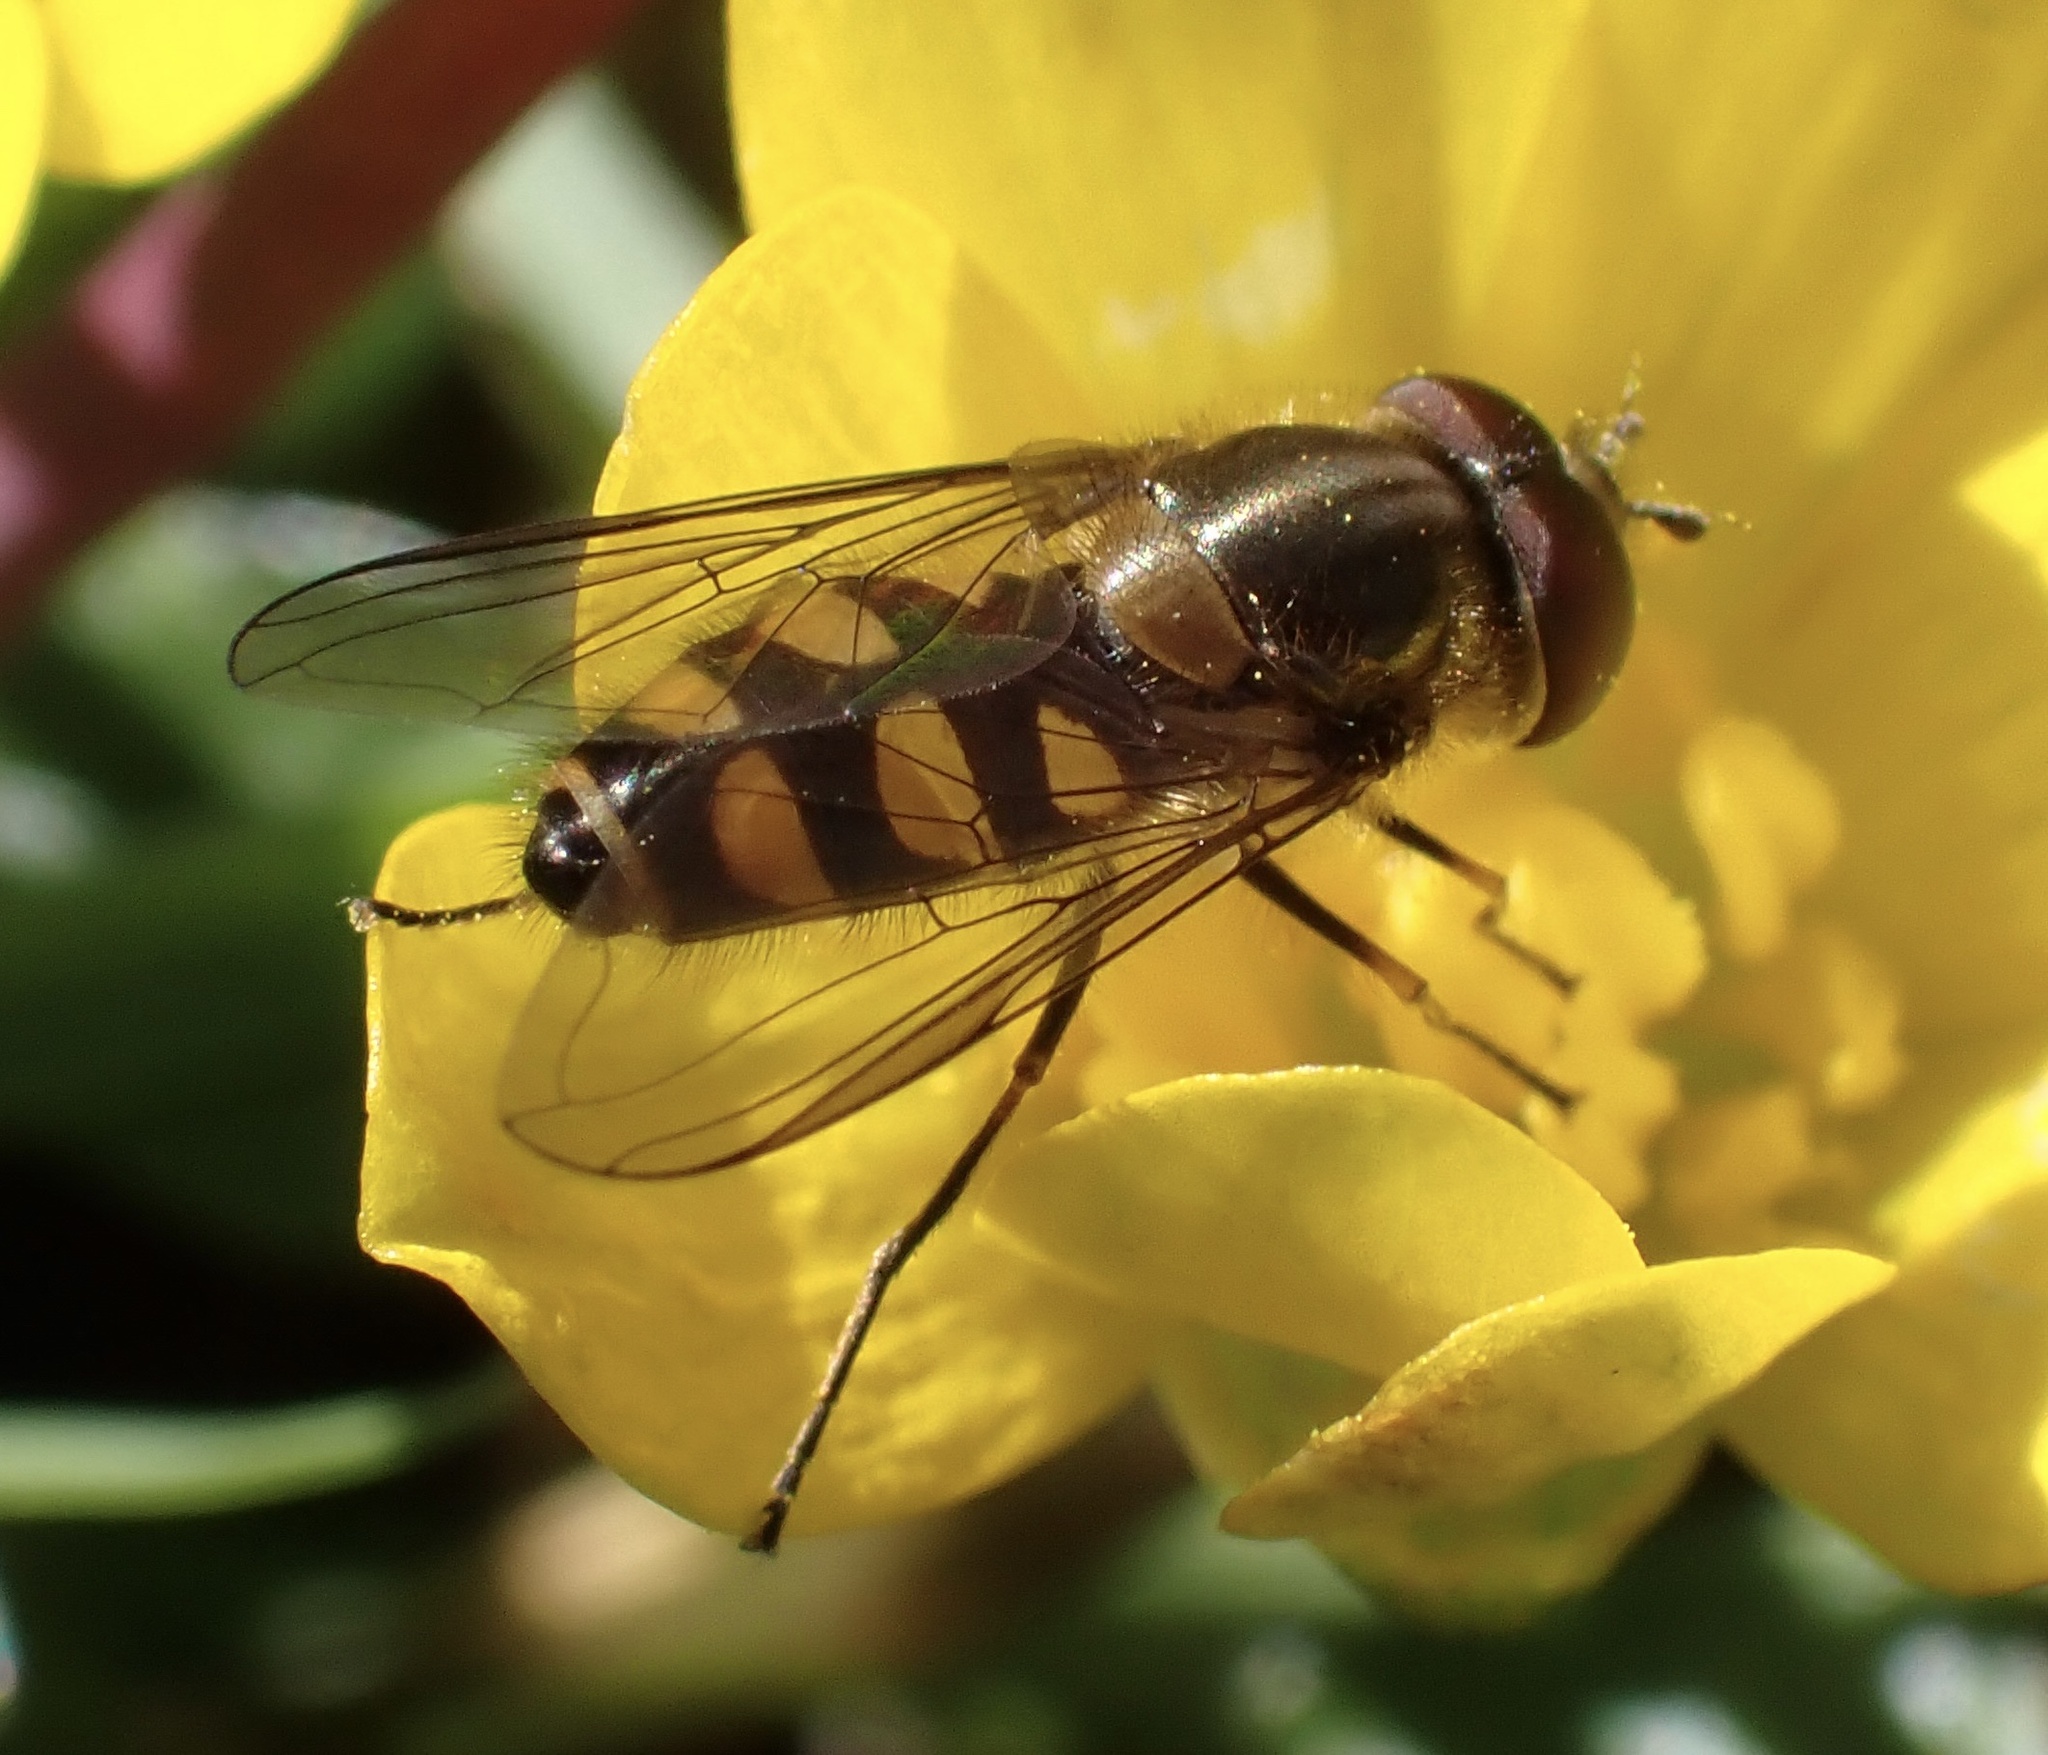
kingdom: Animalia
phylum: Arthropoda
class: Insecta
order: Diptera
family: Syrphidae
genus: Parasyrphus
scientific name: Parasyrphus punctulatus
